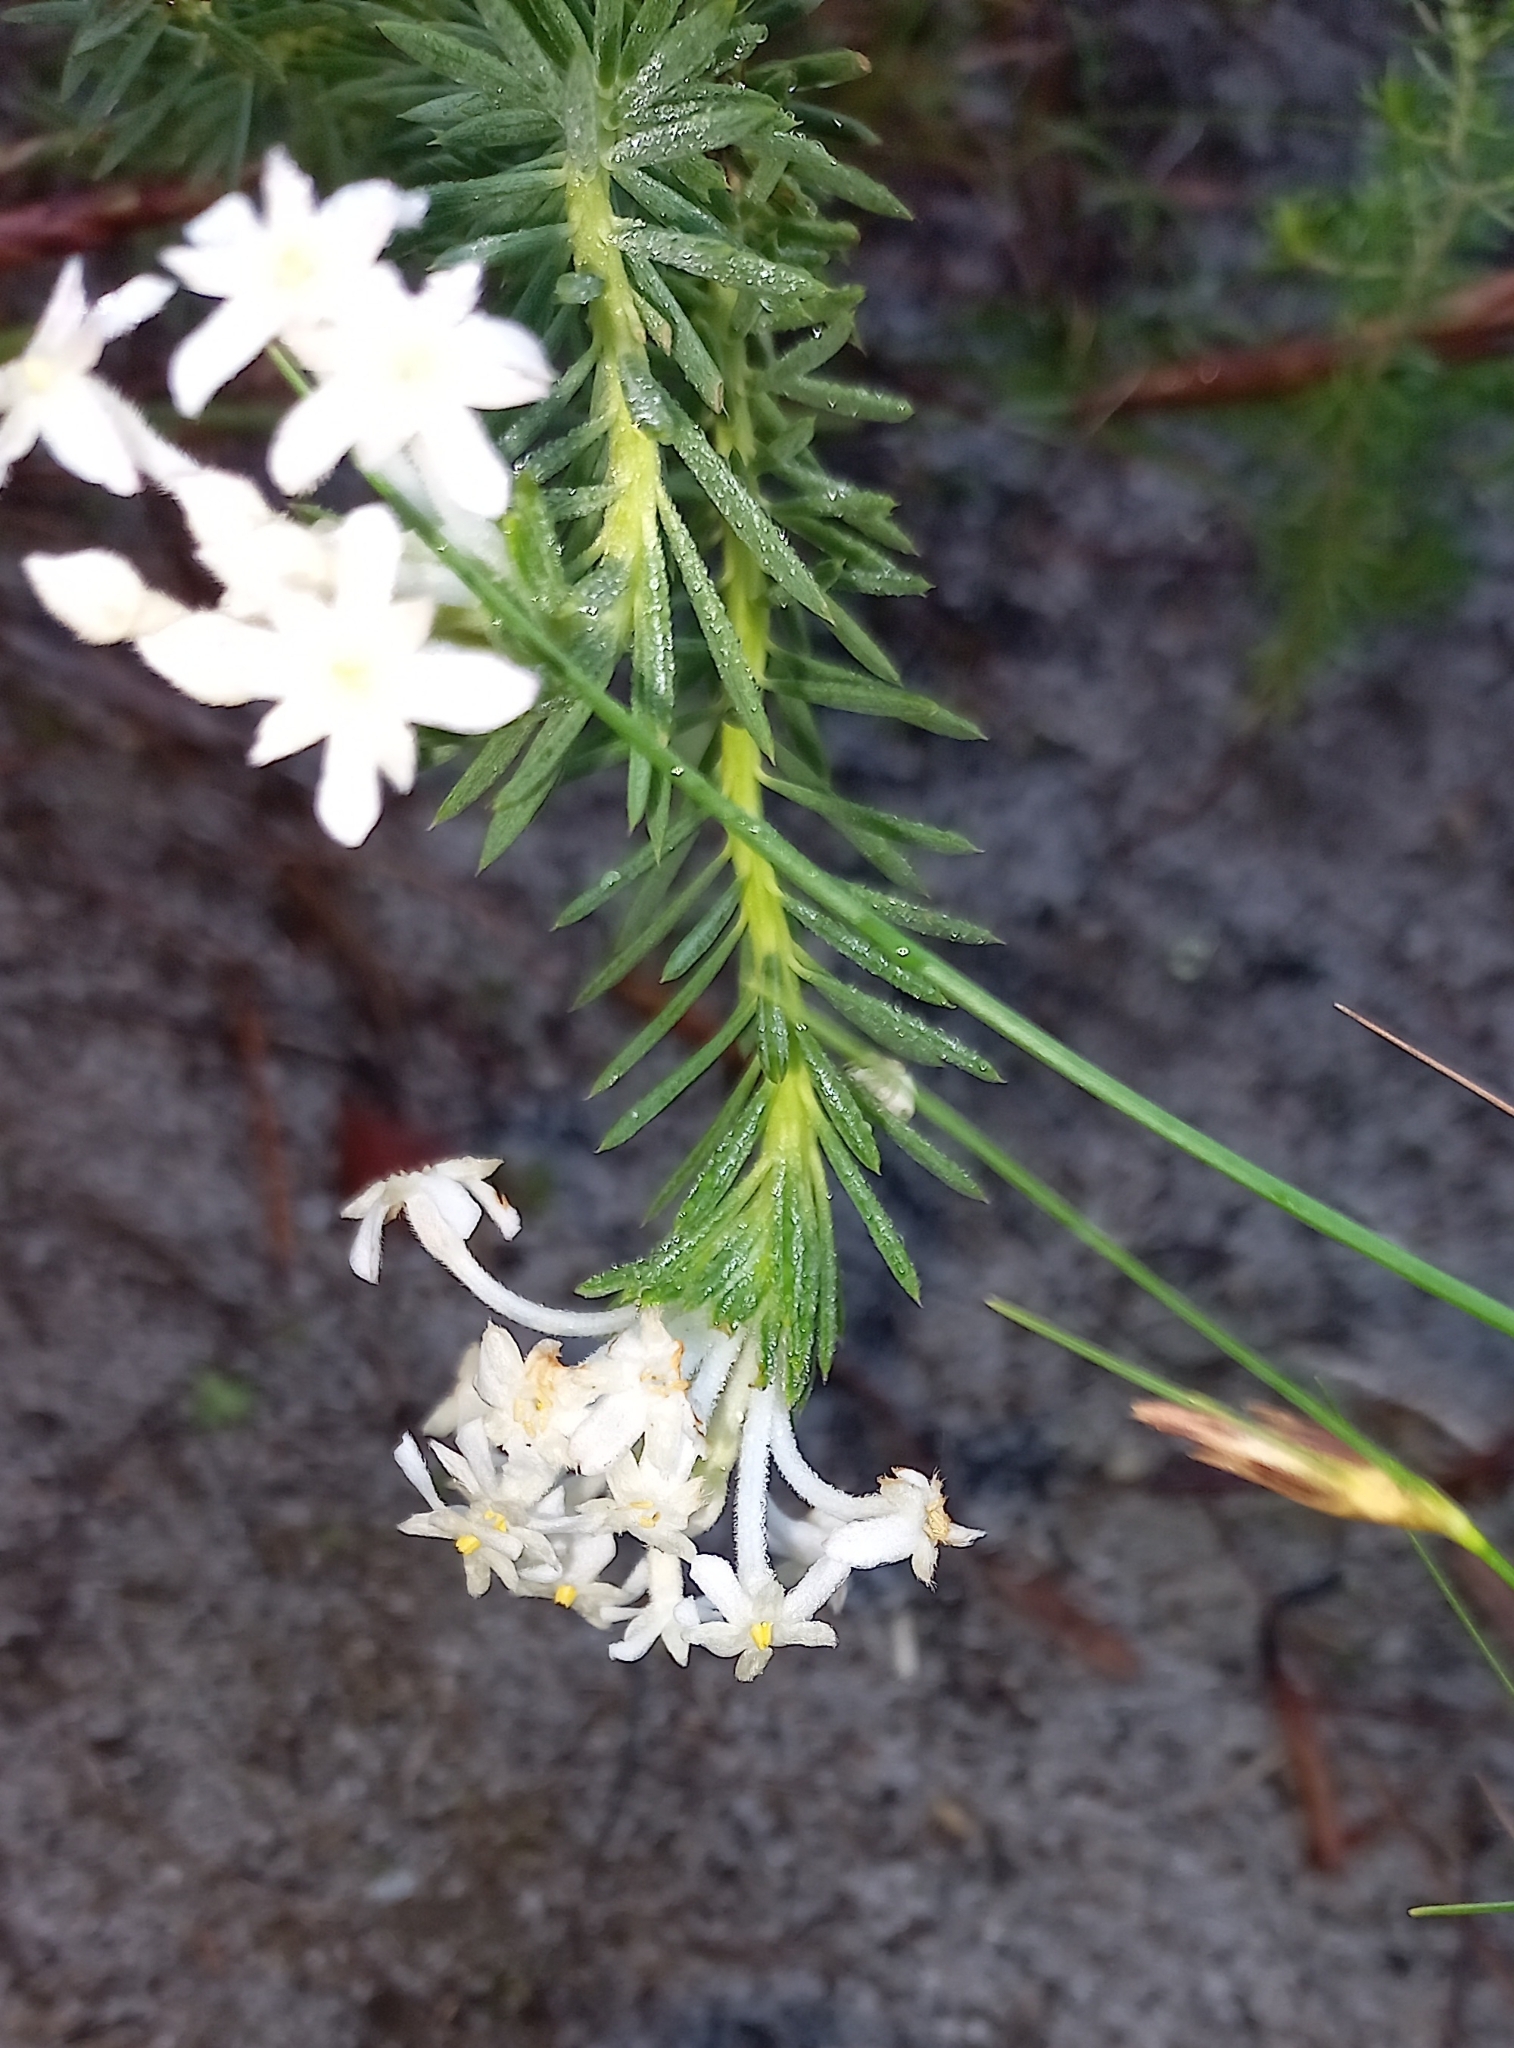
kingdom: Plantae
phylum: Tracheophyta
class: Magnoliopsida
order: Malvales
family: Thymelaeaceae
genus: Gnidia
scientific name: Gnidia pinifolia
